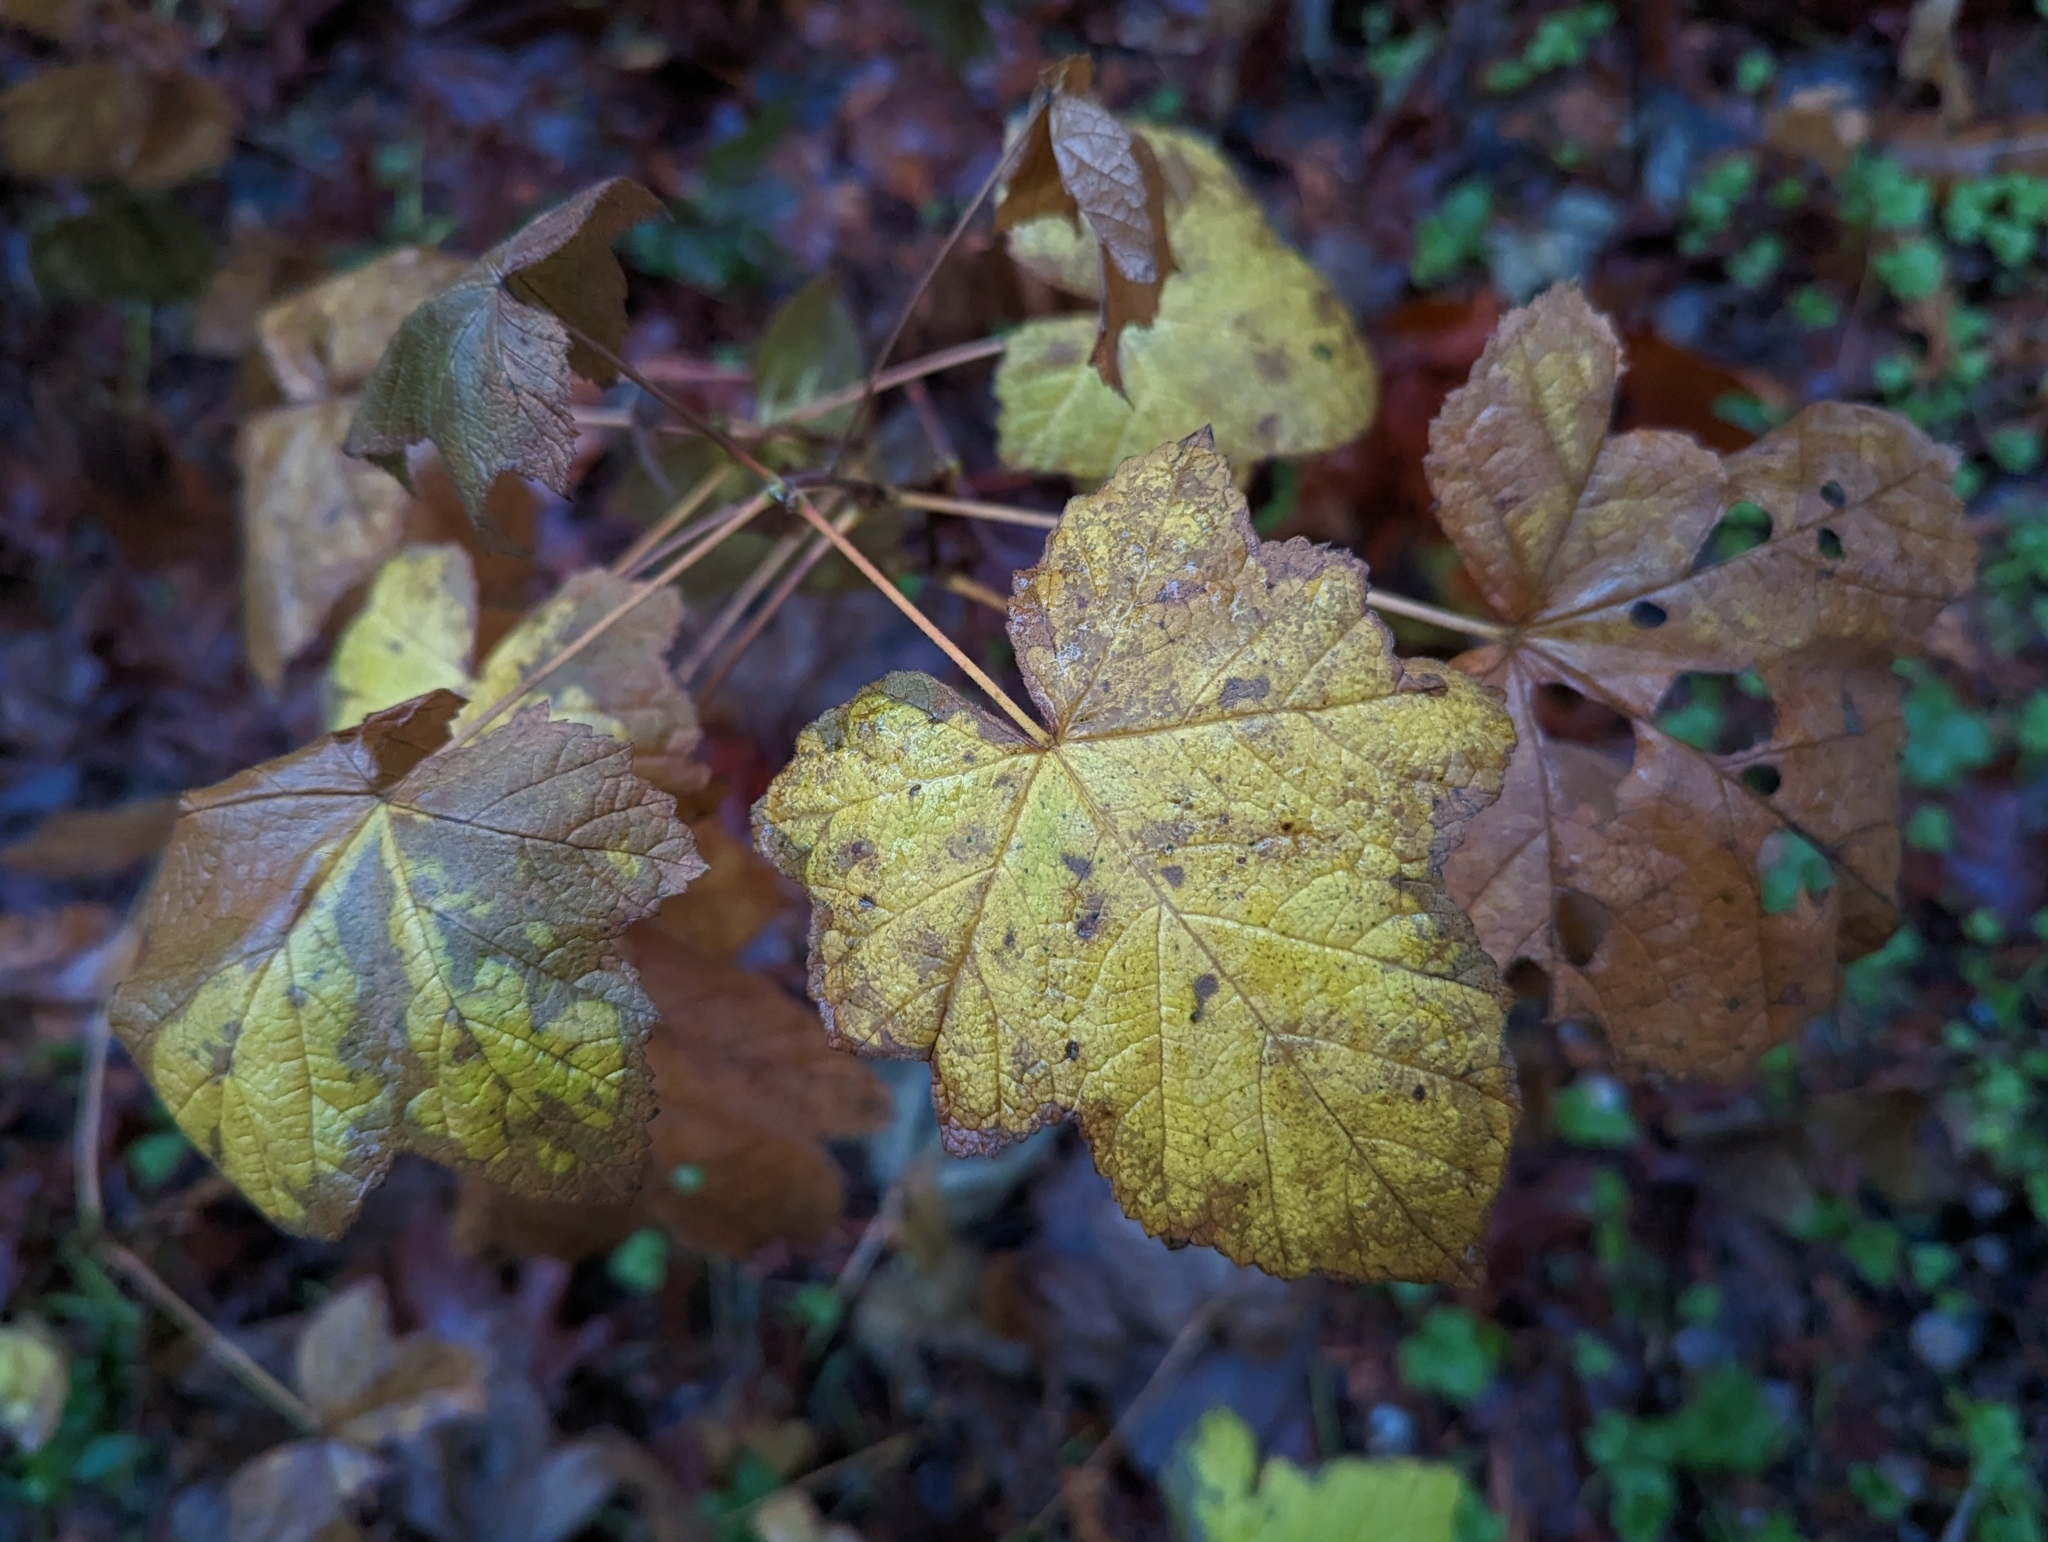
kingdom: Plantae
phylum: Tracheophyta
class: Magnoliopsida
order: Rosales
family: Rosaceae
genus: Rubus
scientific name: Rubus parviflorus
